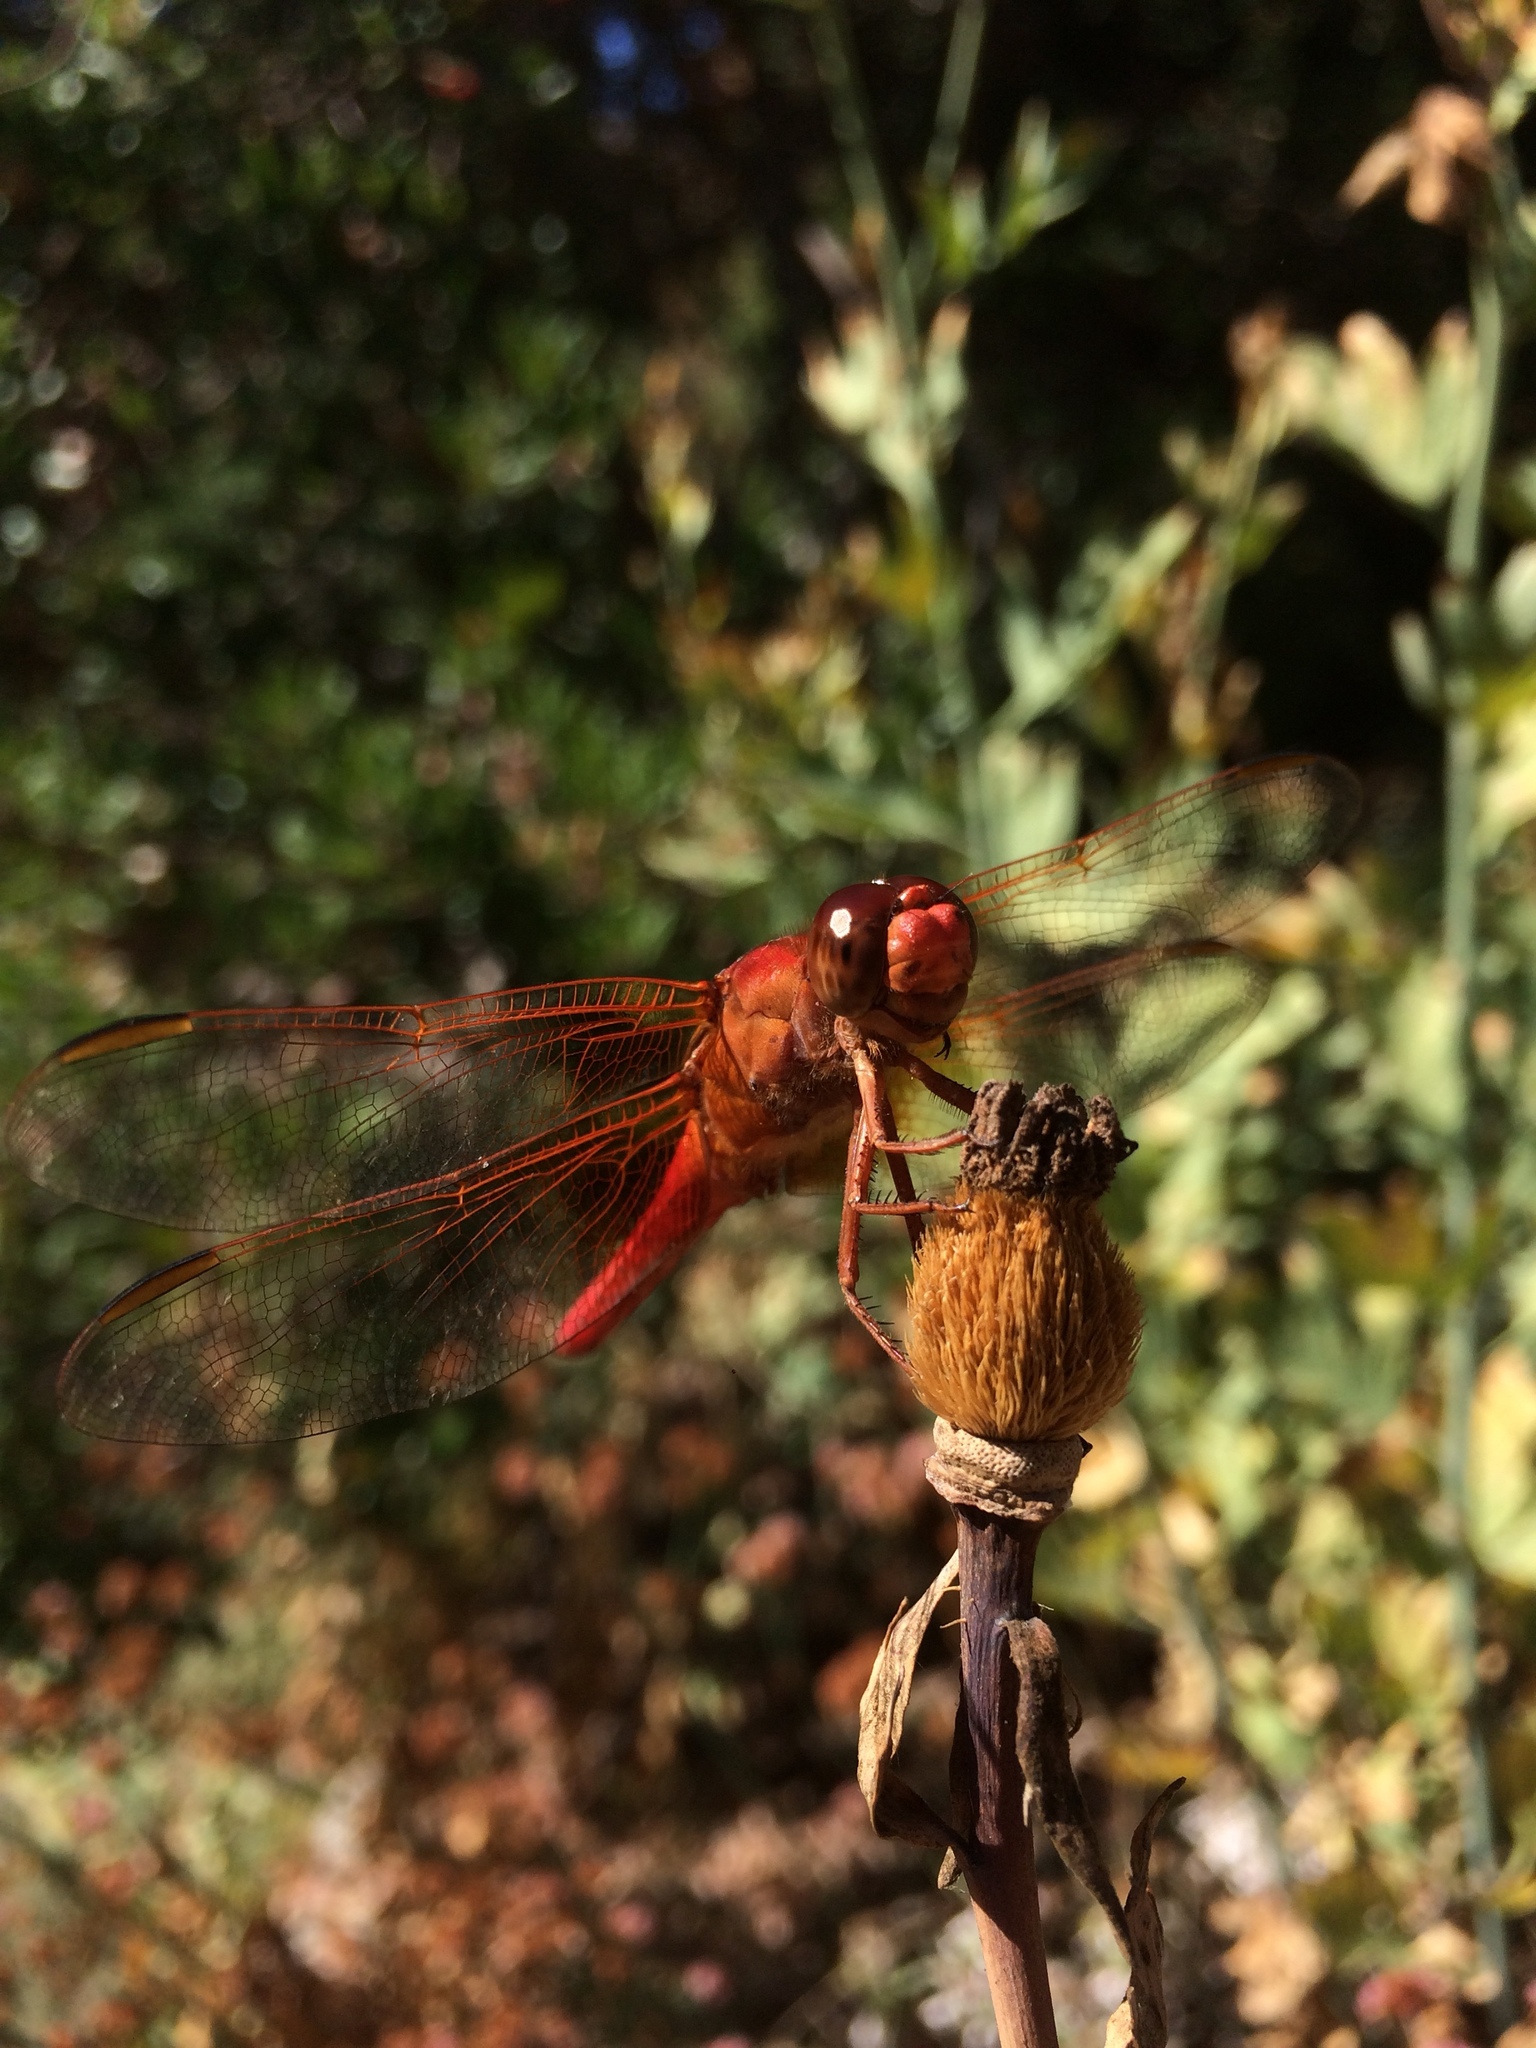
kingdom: Animalia
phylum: Arthropoda
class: Insecta
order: Odonata
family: Libellulidae
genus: Libellula
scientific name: Libellula croceipennis
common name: Neon skimmer
